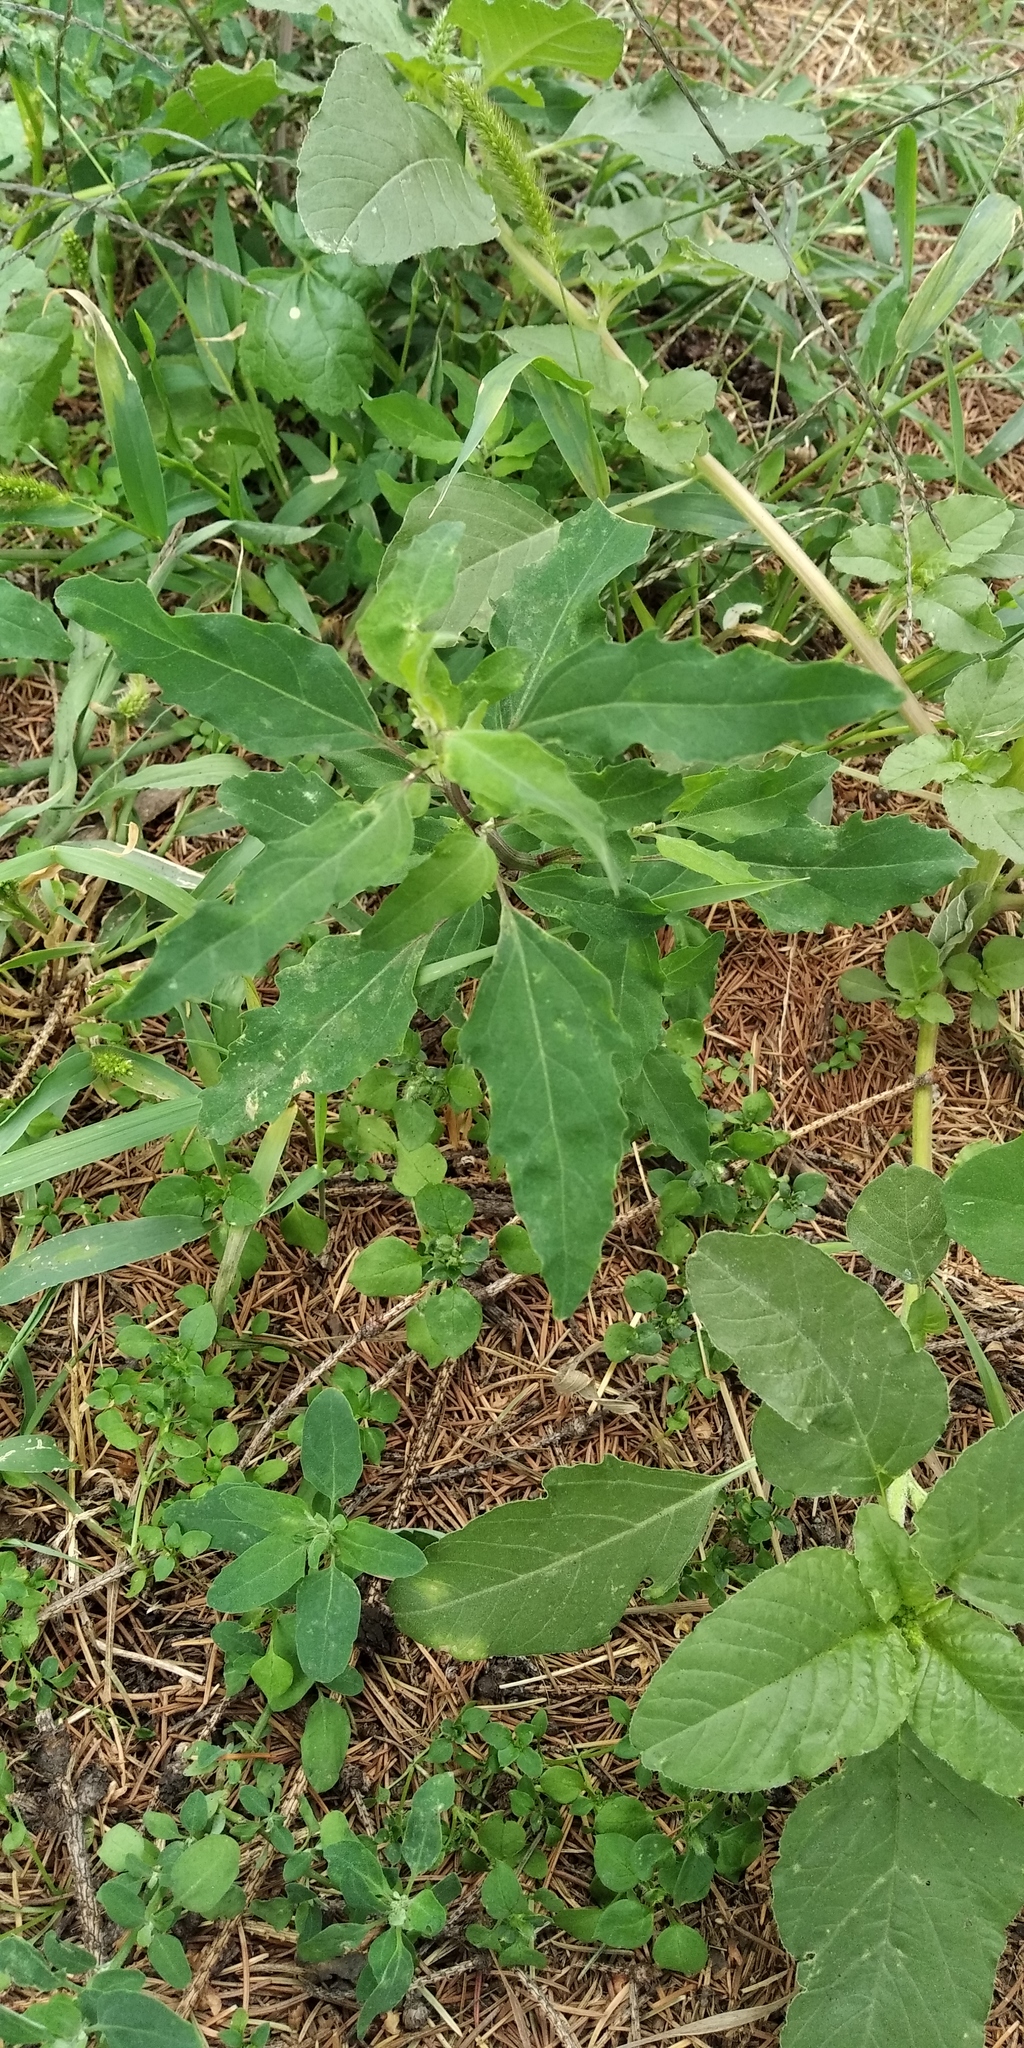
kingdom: Plantae
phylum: Tracheophyta
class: Magnoliopsida
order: Caryophyllales
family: Amaranthaceae
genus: Chenopodium
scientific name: Chenopodium betaceum
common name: Striped goosefoot
